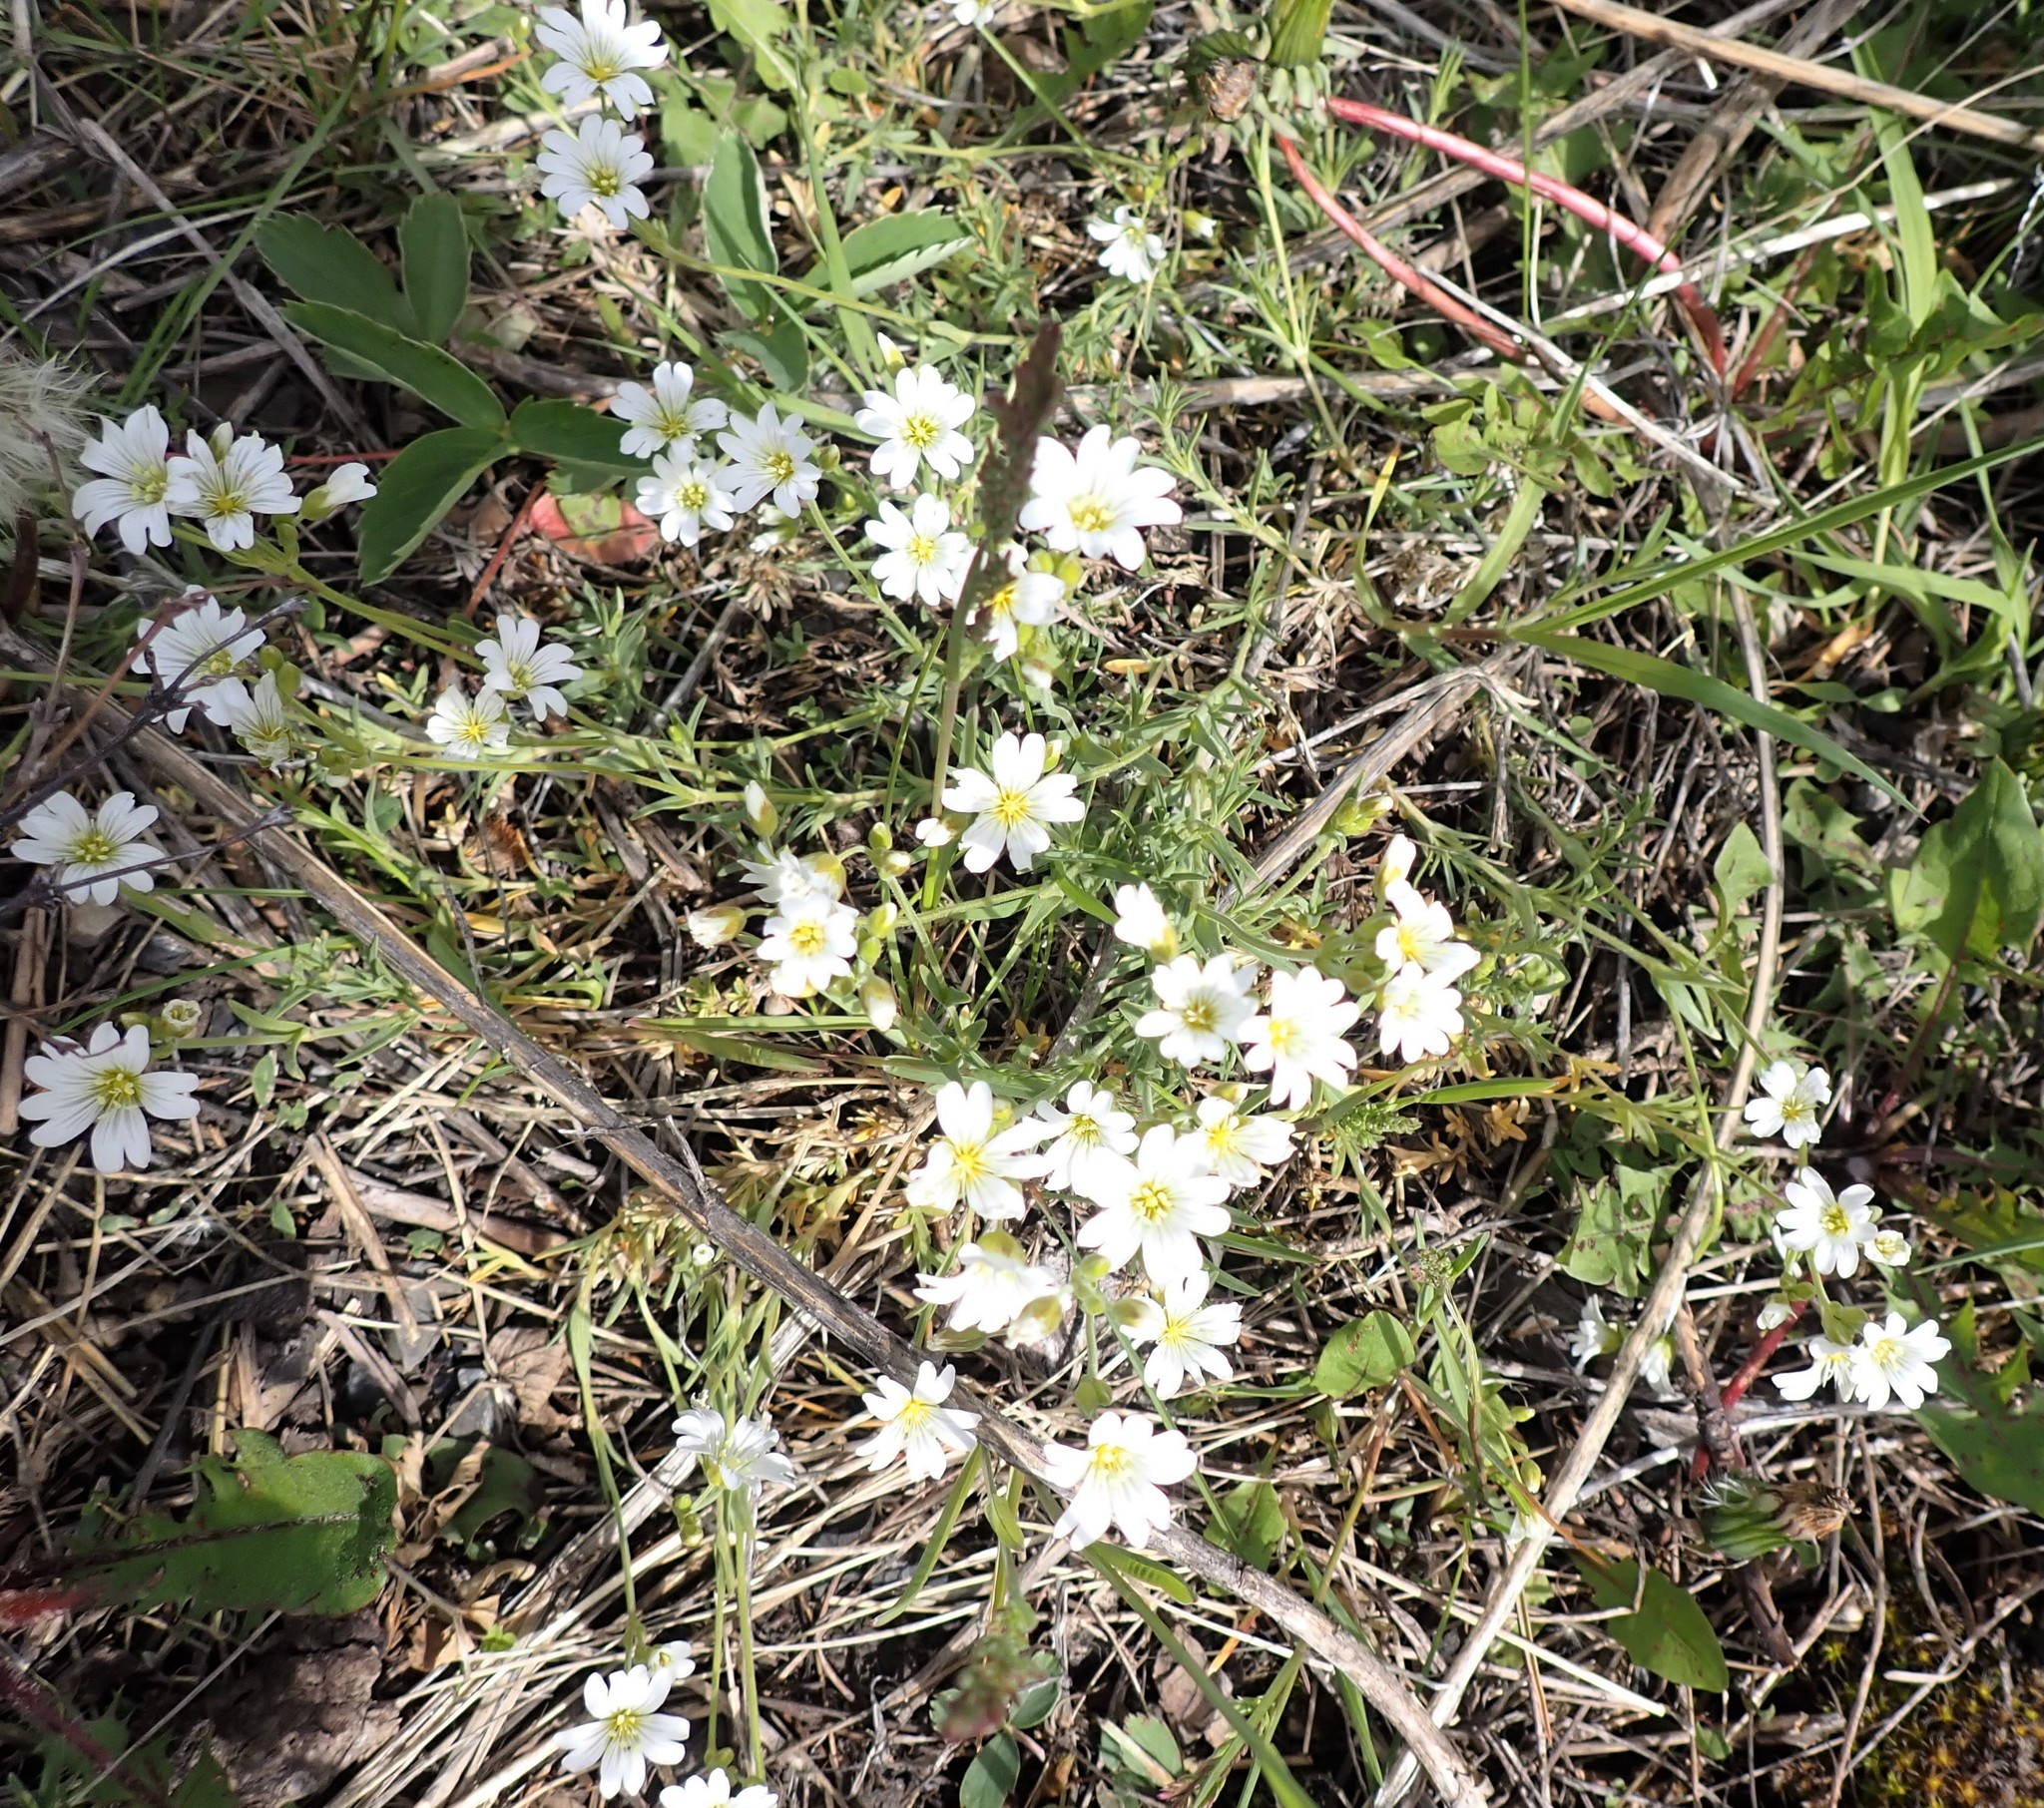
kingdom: Plantae
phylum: Tracheophyta
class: Magnoliopsida
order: Caryophyllales
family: Caryophyllaceae
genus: Cerastium
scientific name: Cerastium arvense
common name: Field mouse-ear
